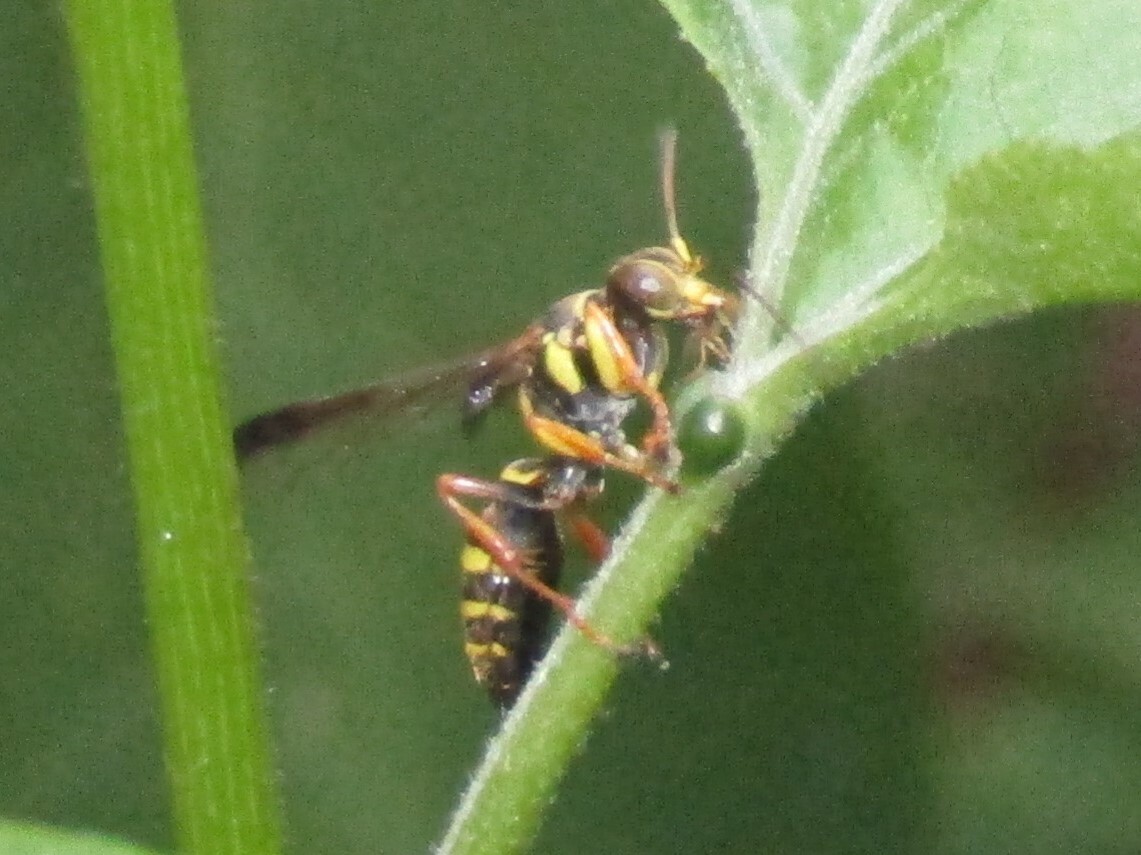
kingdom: Animalia
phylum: Arthropoda
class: Insecta
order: Hymenoptera
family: Crabronidae
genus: Psammaletes
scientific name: Psammaletes mexicanus
